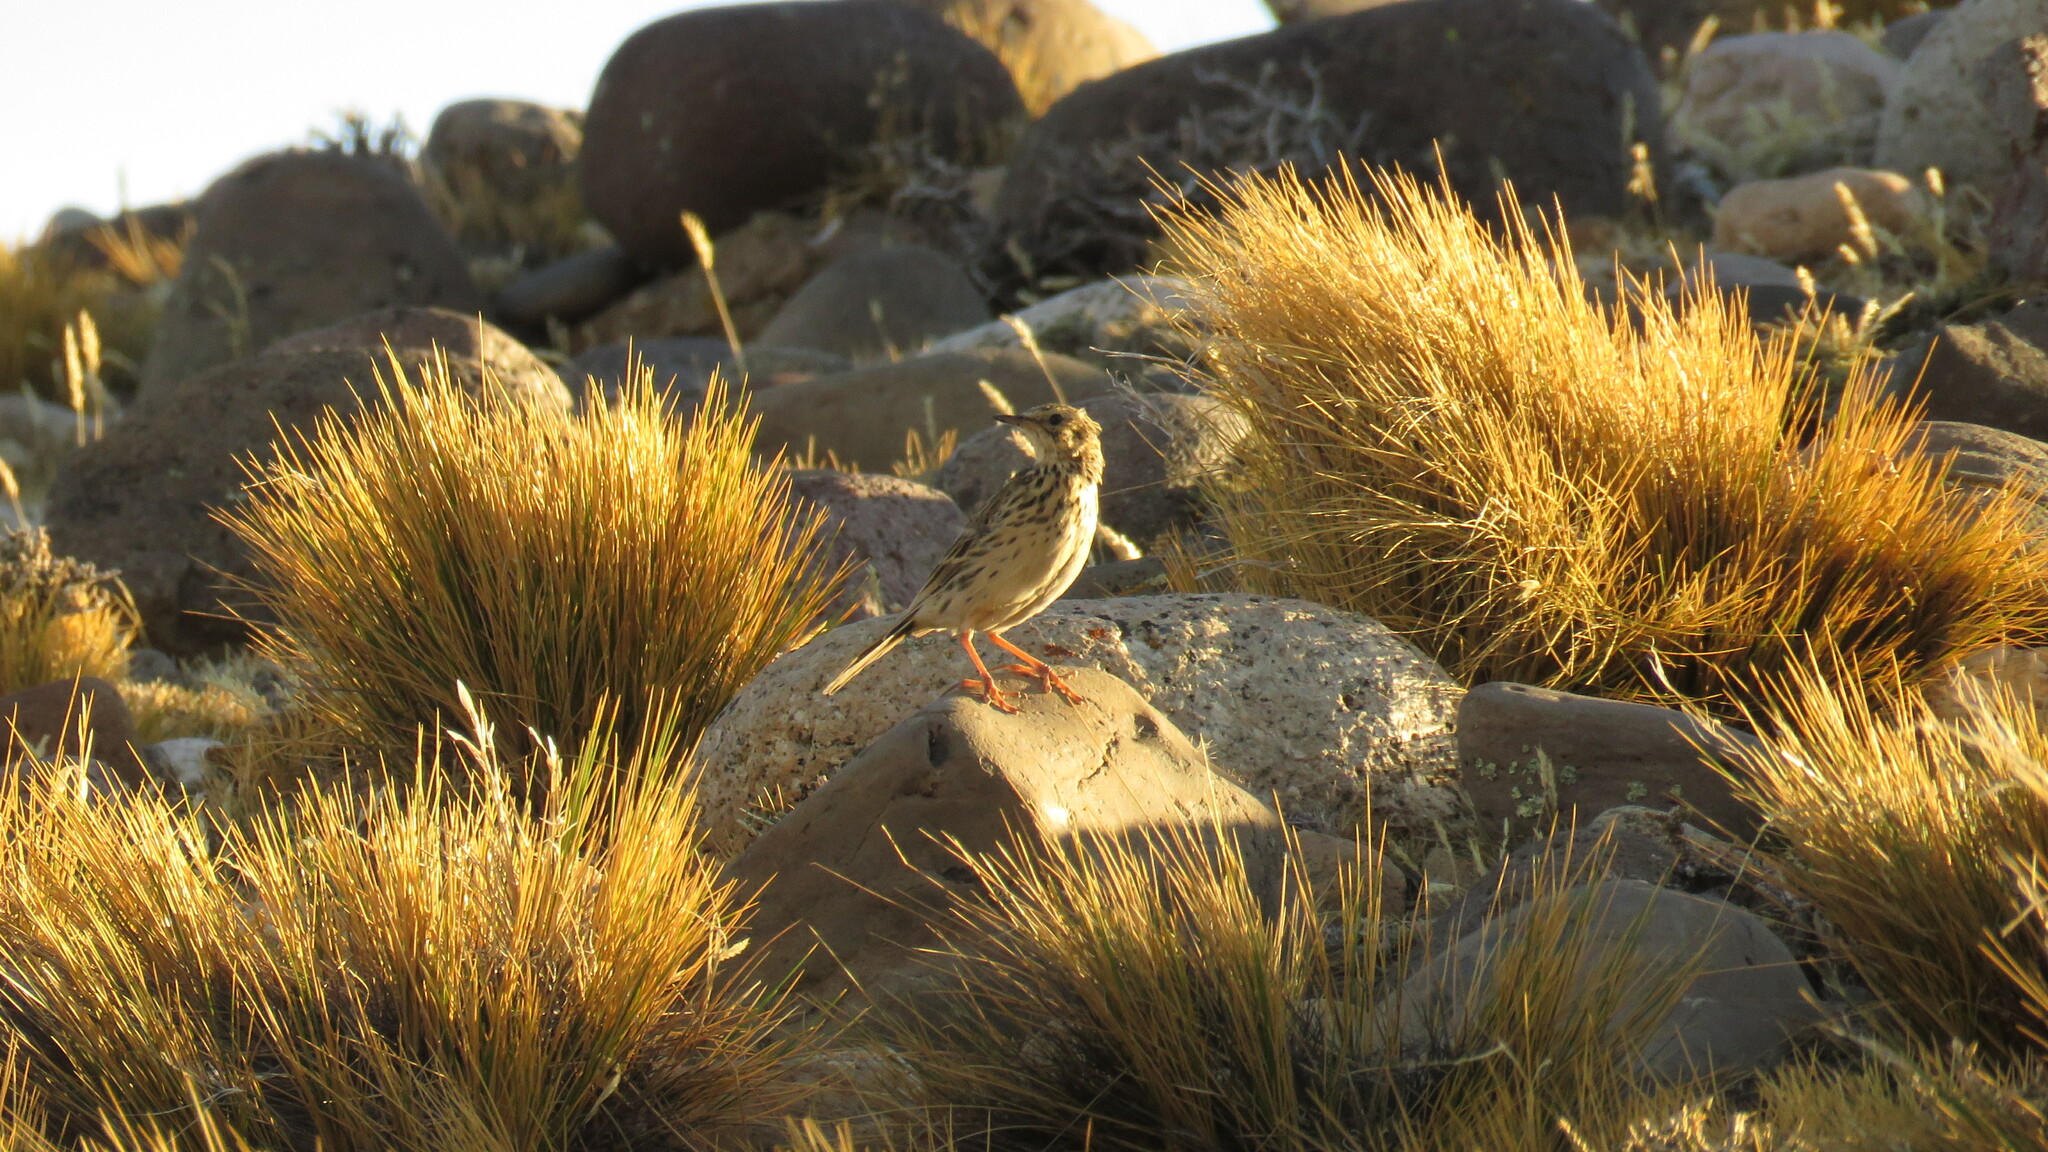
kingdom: Animalia
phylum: Chordata
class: Aves
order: Passeriformes
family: Motacillidae
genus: Anthus
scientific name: Anthus correndera
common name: Correndera pipit
